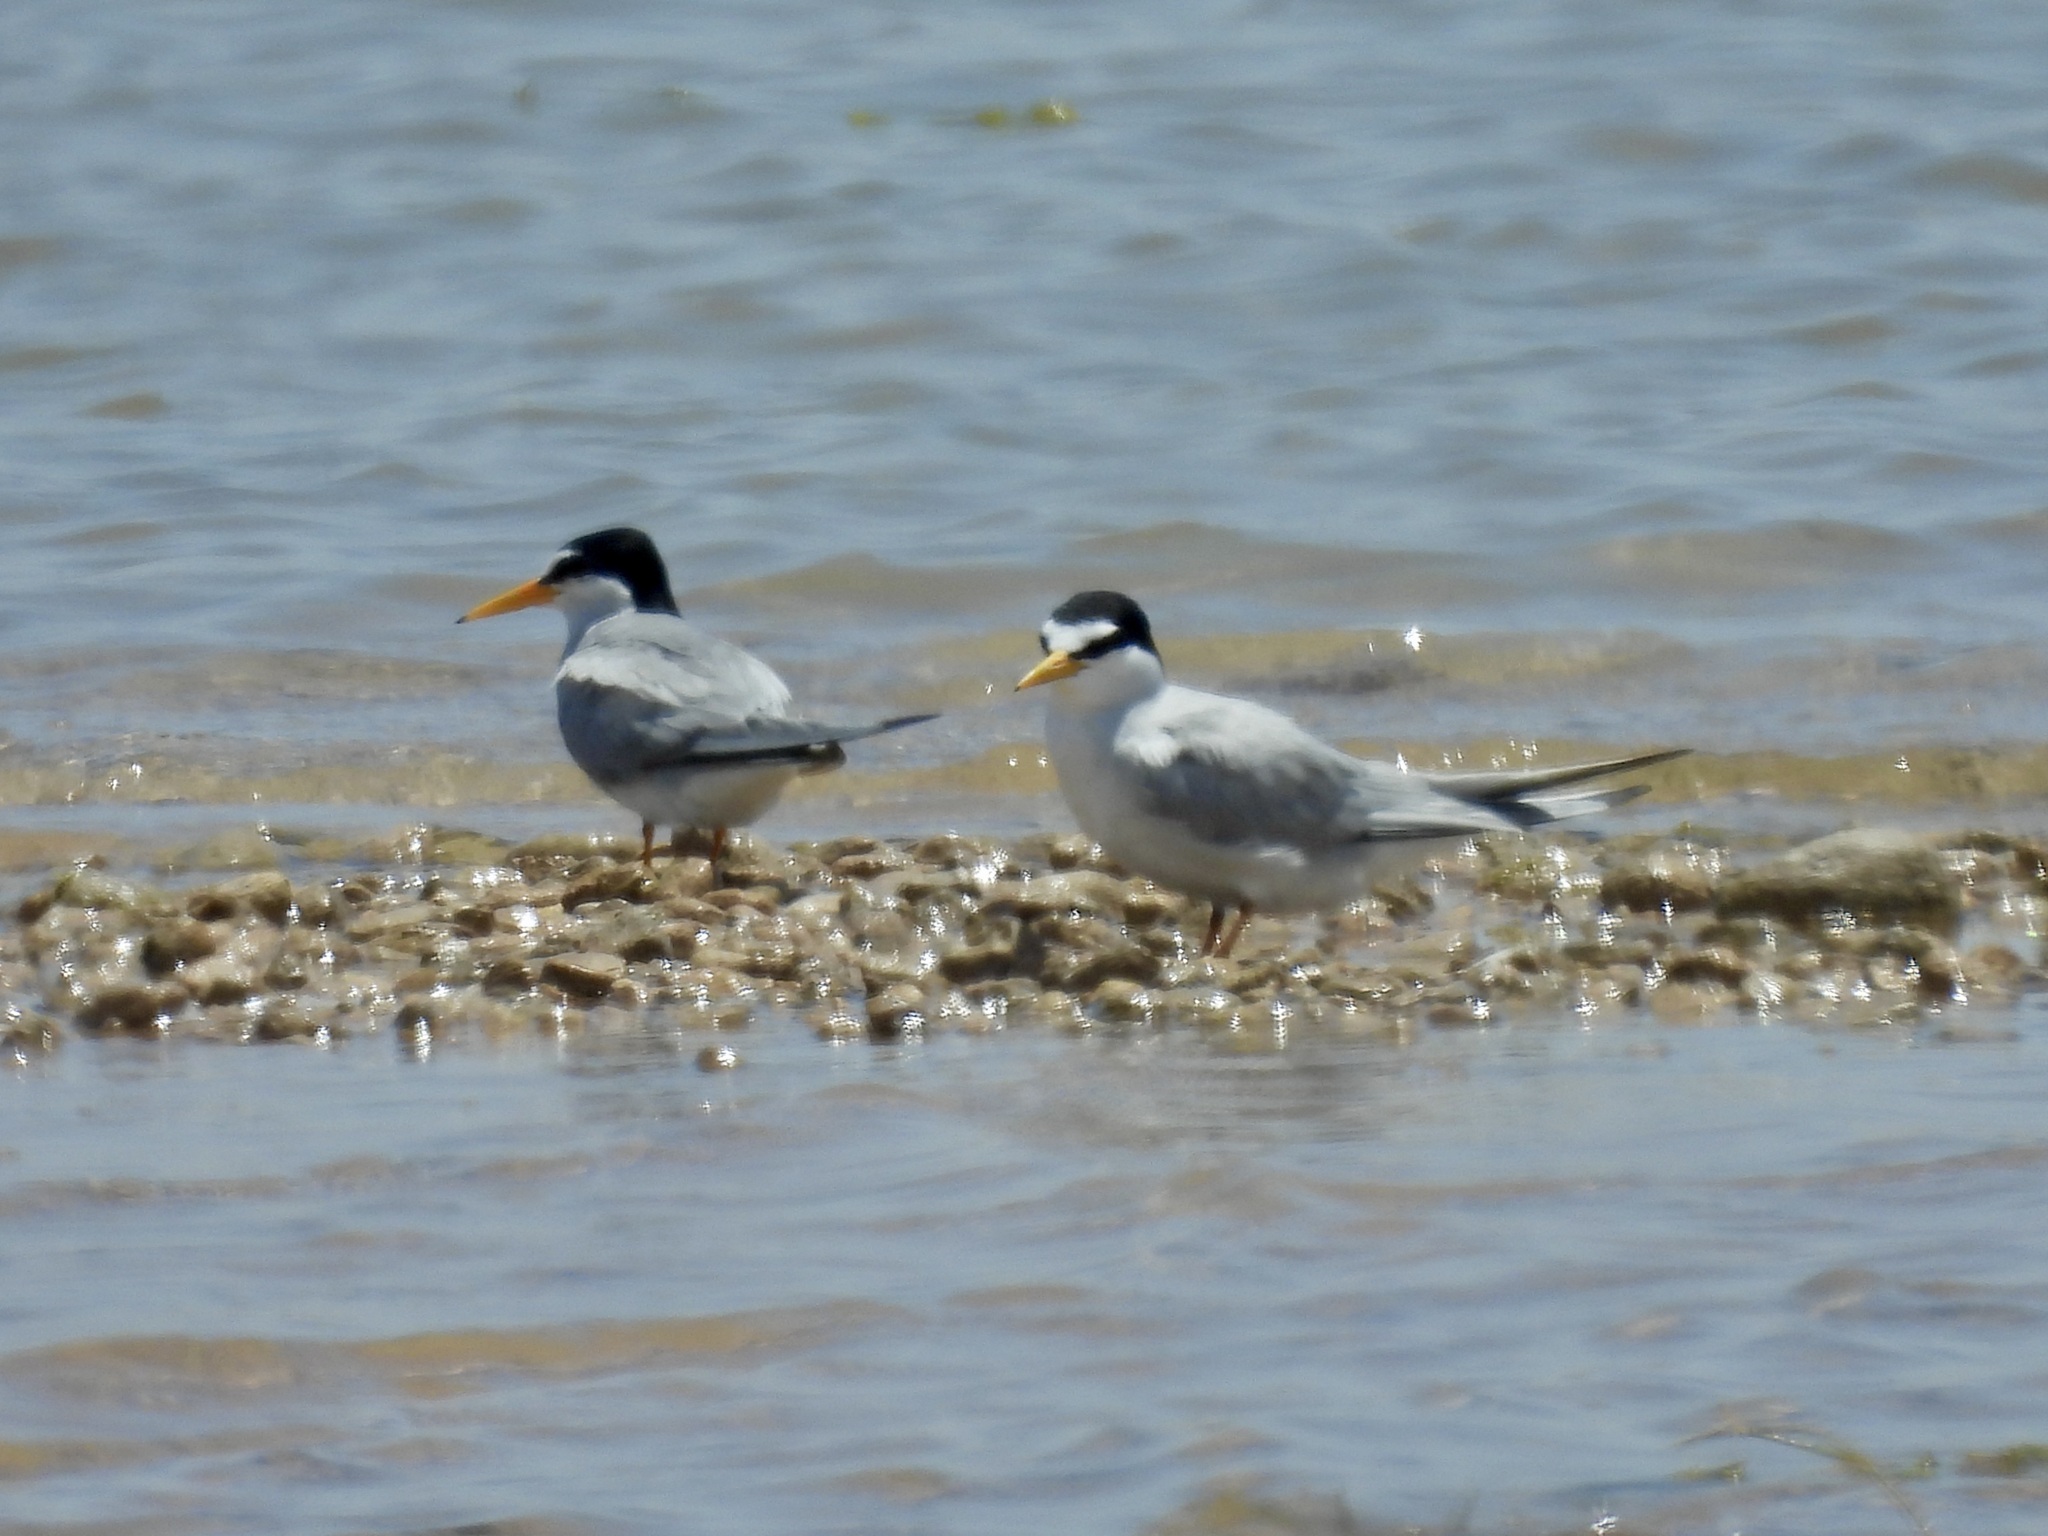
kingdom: Animalia
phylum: Chordata
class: Aves
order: Charadriiformes
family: Laridae
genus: Sternula
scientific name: Sternula antillarum
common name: Least tern
